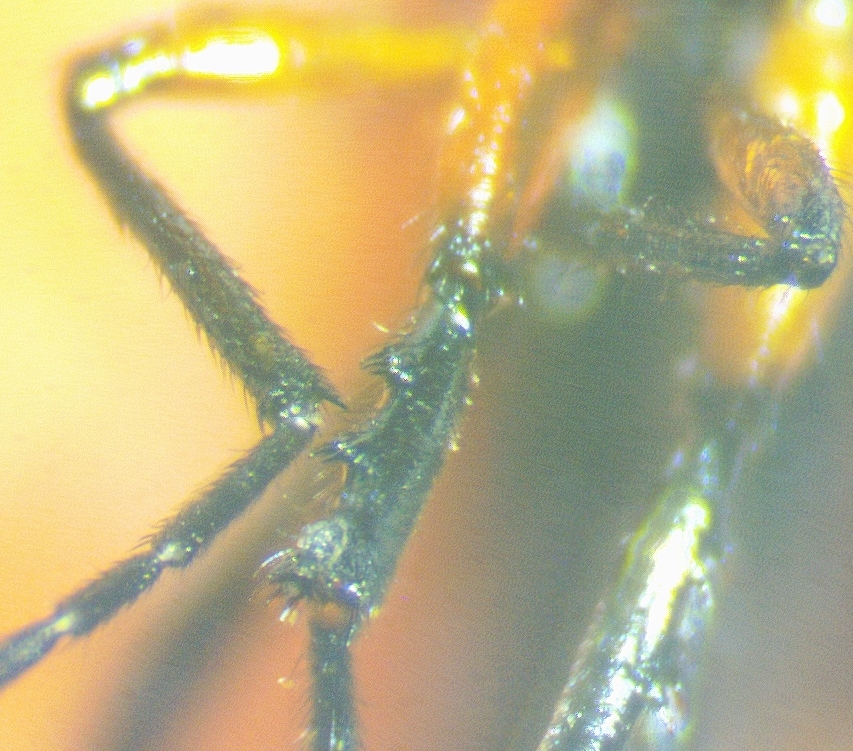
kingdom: Animalia
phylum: Arthropoda
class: Insecta
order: Diptera
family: Bibionidae
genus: Dilophus
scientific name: Dilophus spinipes
